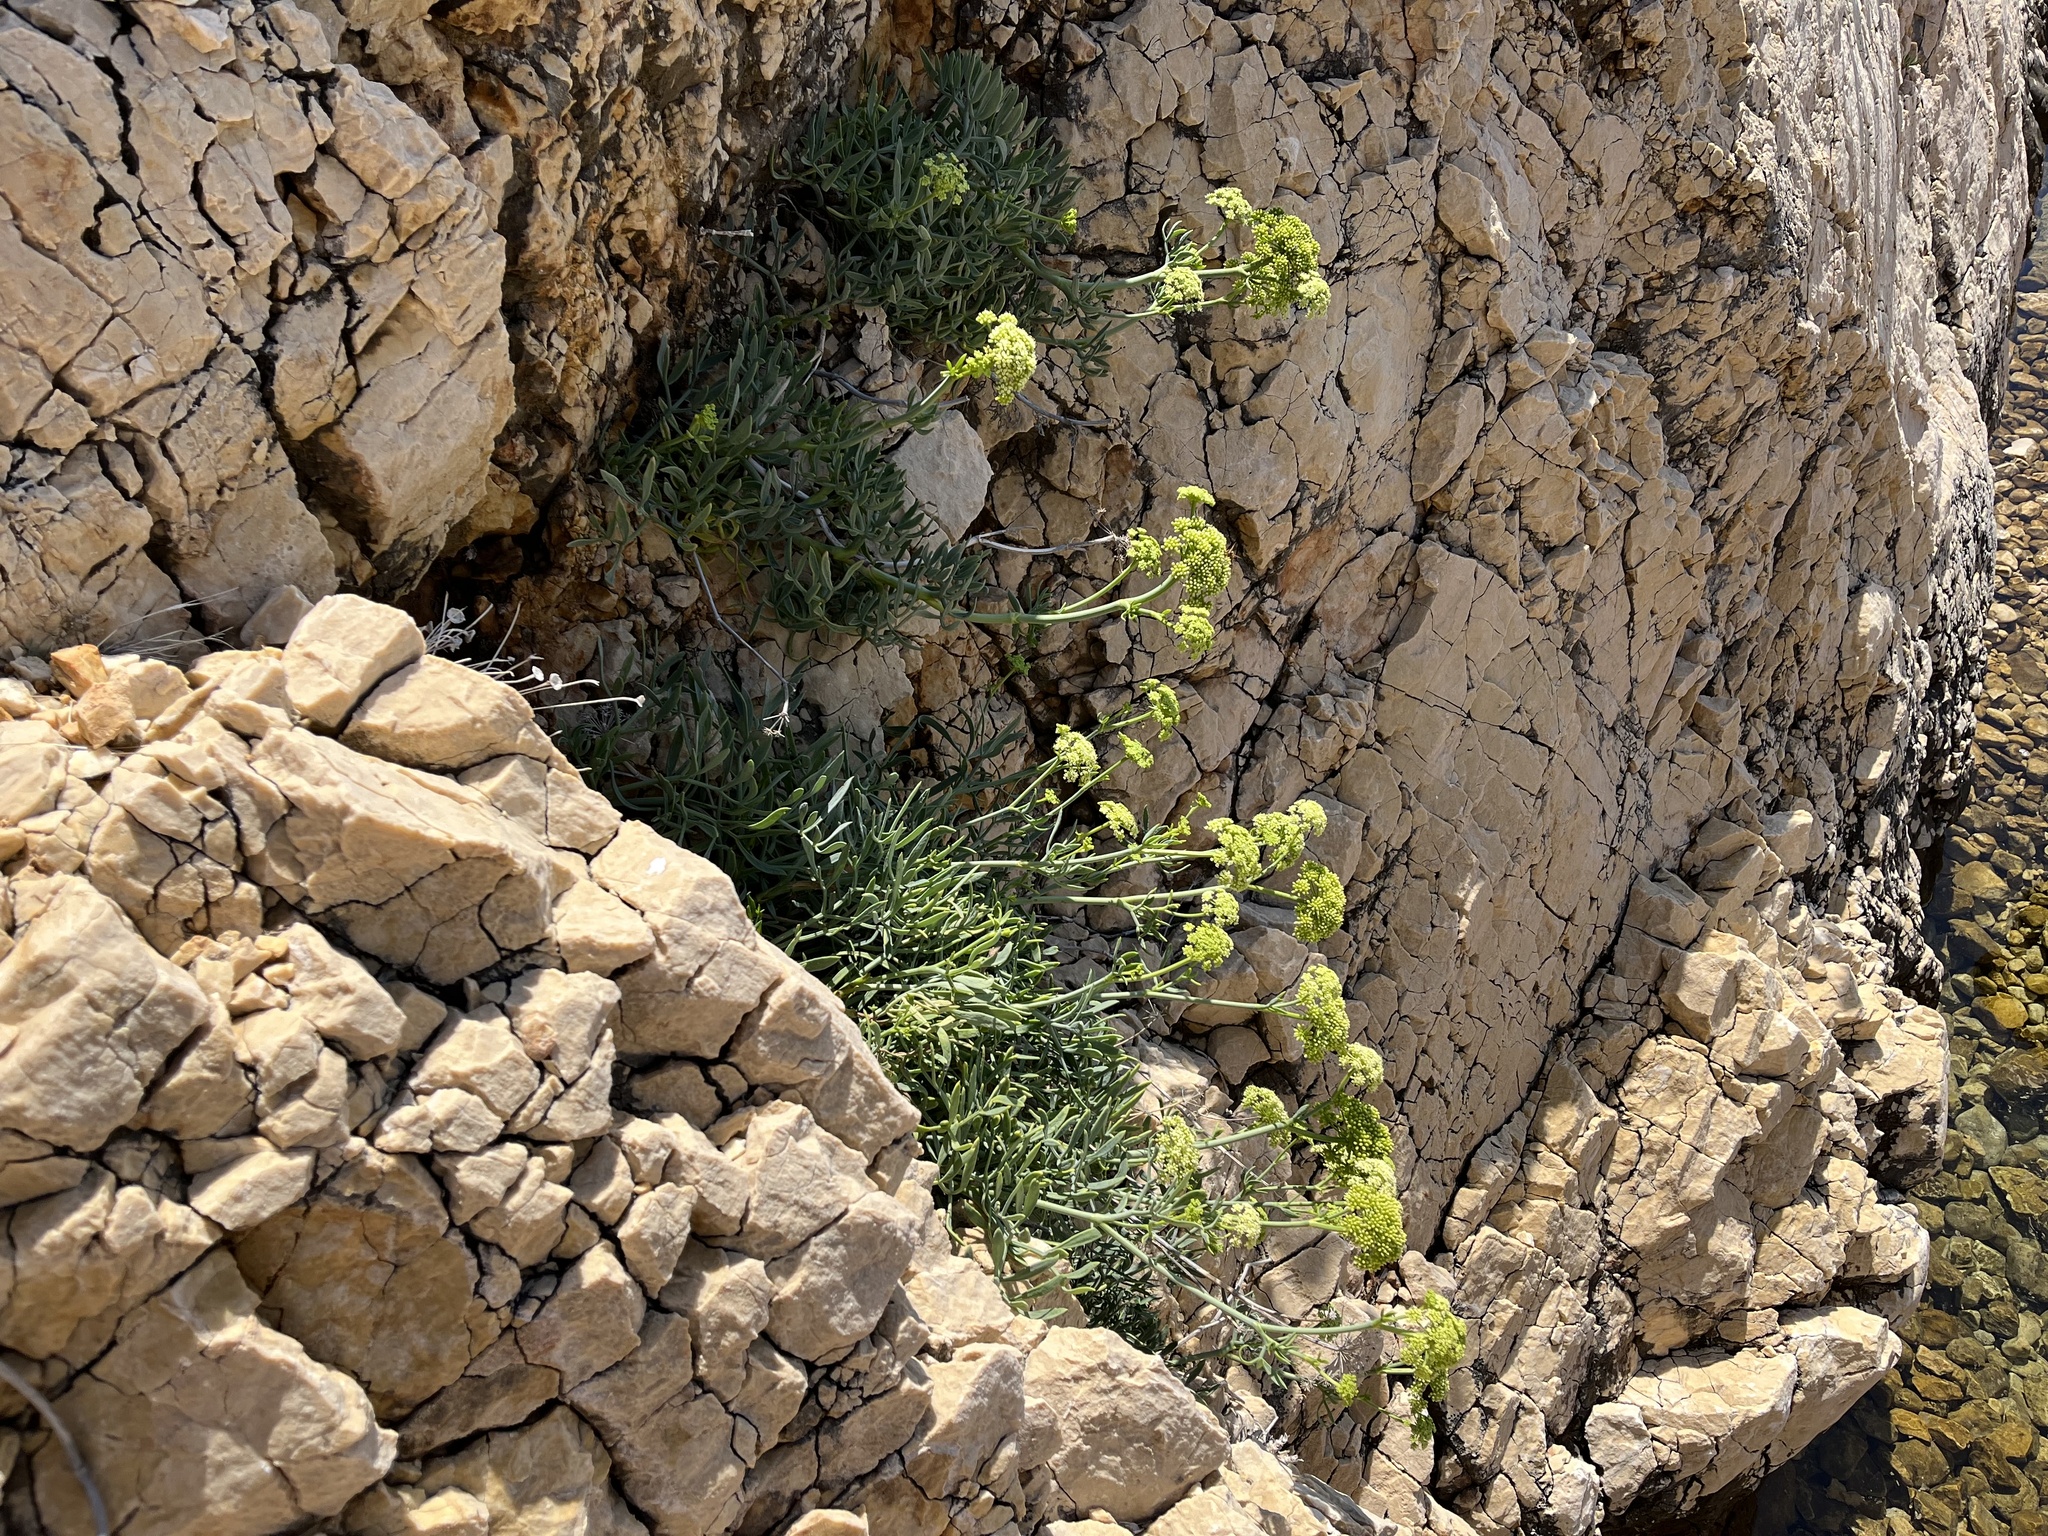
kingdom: Plantae
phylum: Tracheophyta
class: Magnoliopsida
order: Apiales
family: Apiaceae
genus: Crithmum
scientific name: Crithmum maritimum
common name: Rock samphire
